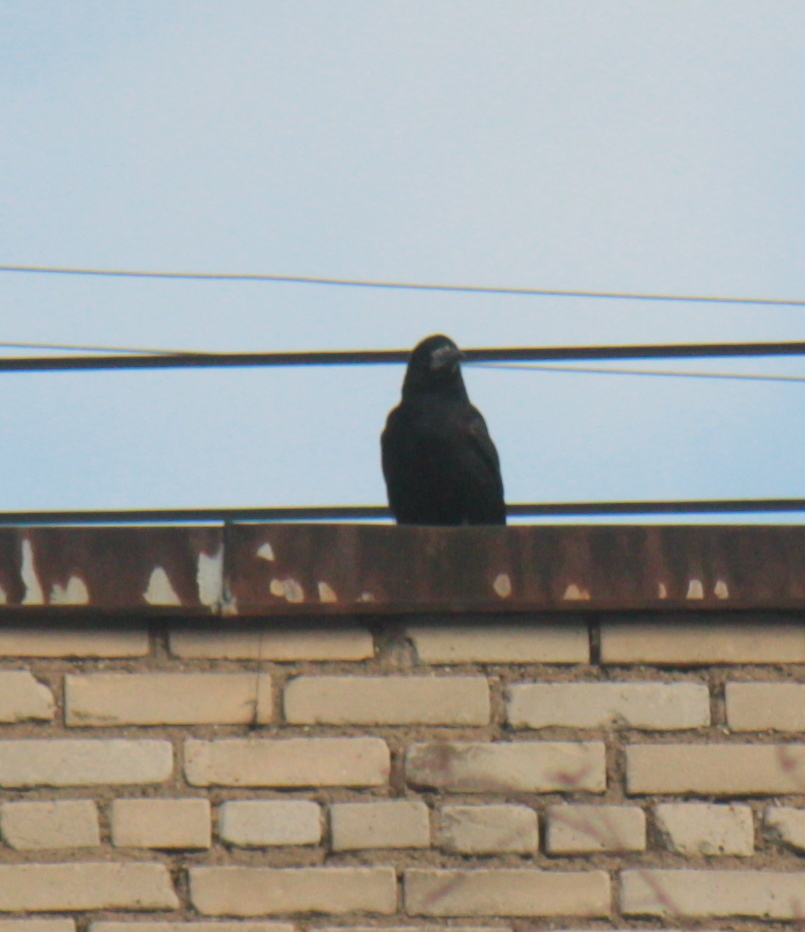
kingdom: Animalia
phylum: Chordata
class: Aves
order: Passeriformes
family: Corvidae
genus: Corvus
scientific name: Corvus frugilegus
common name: Rook
